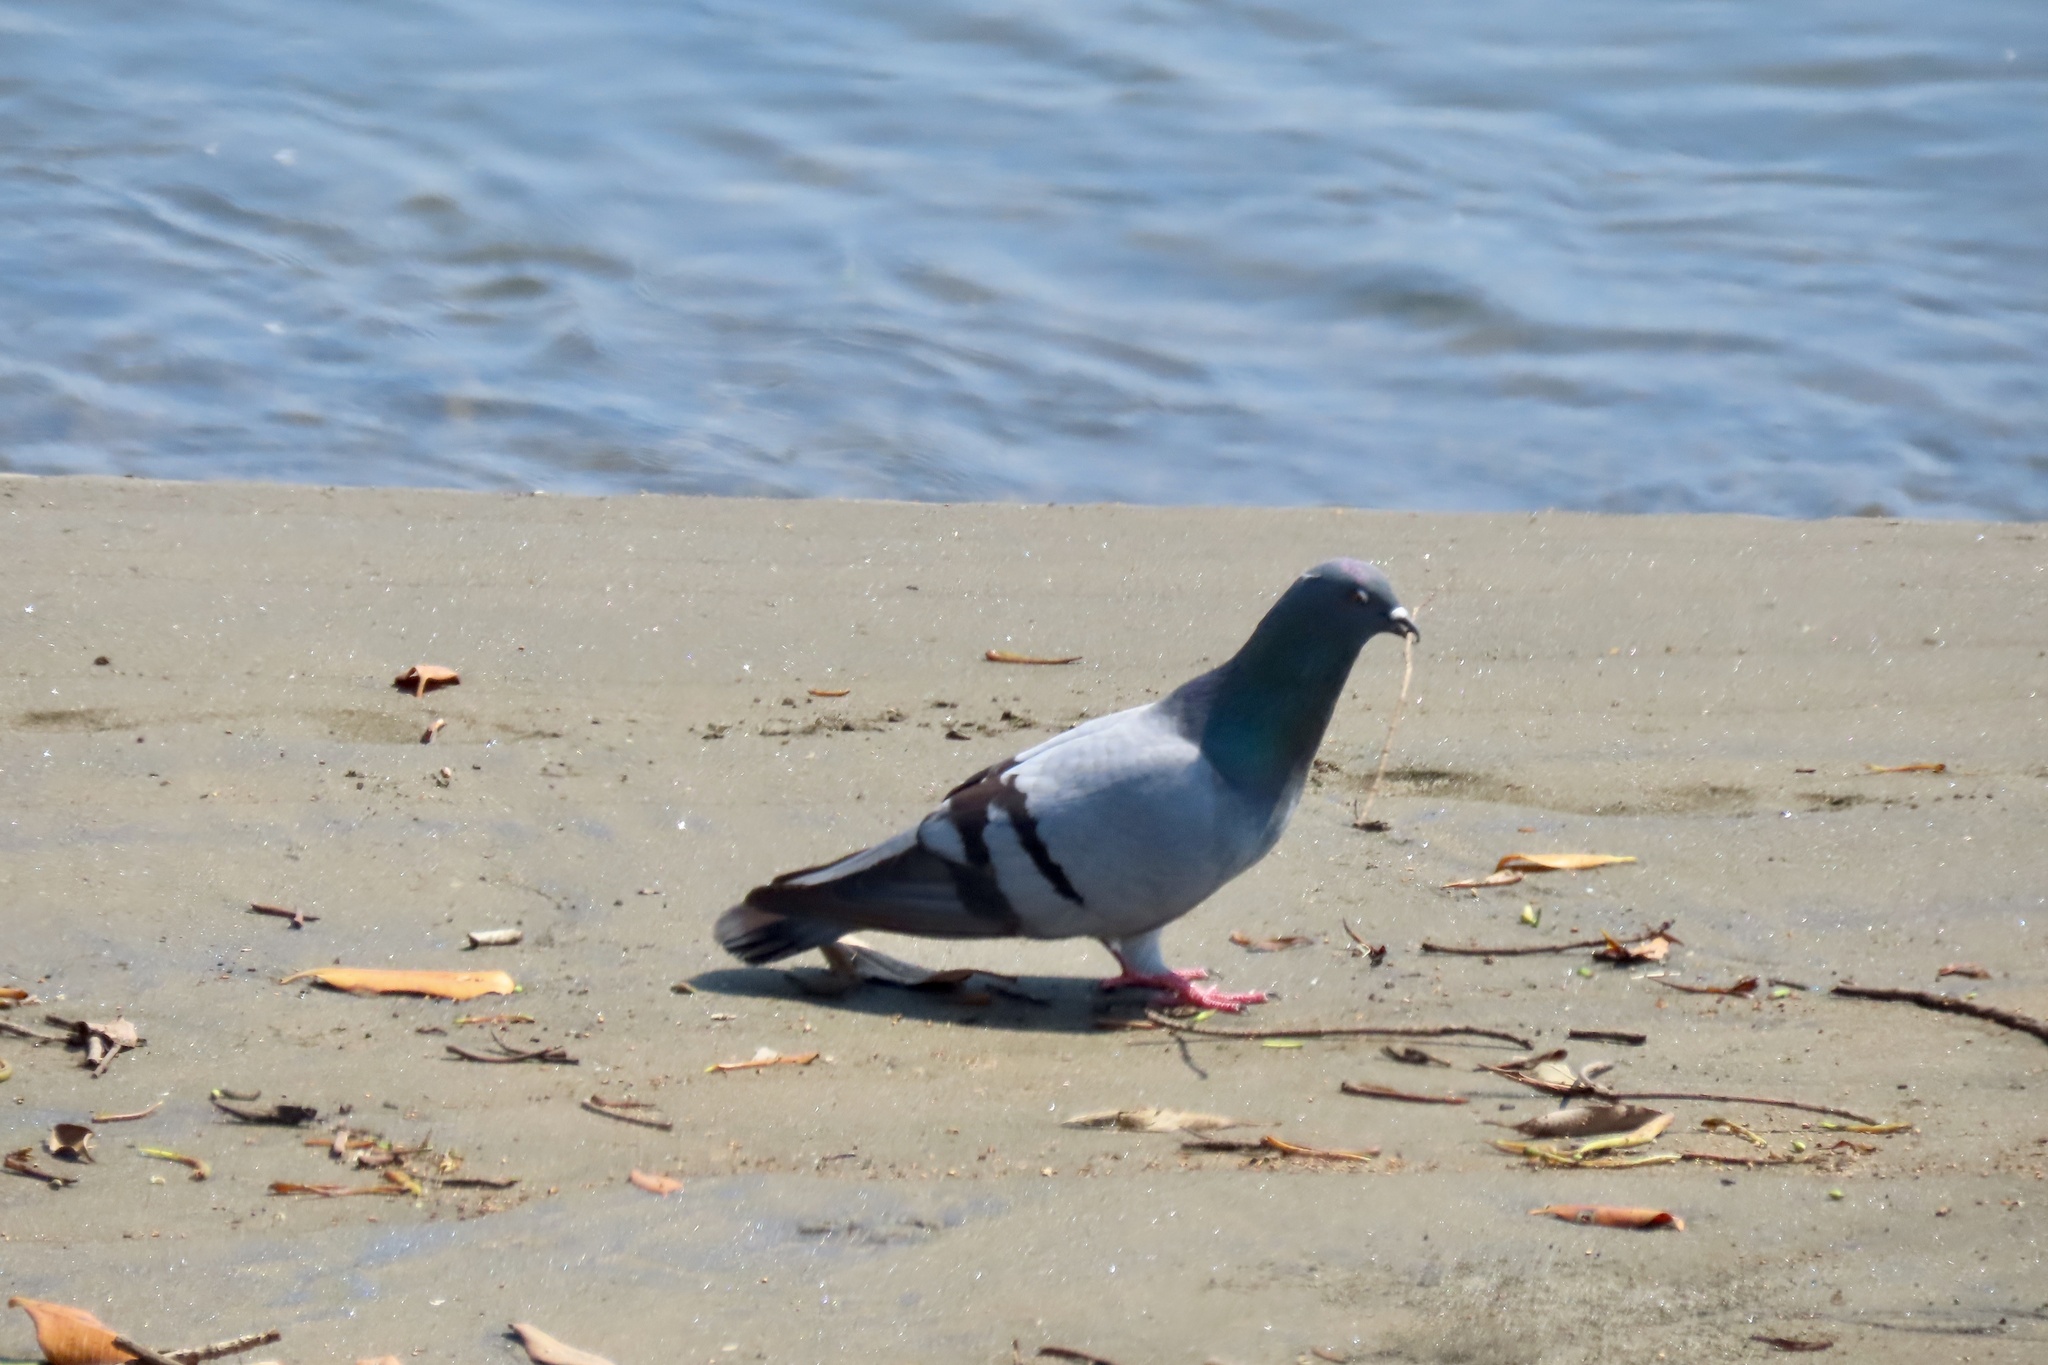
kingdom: Animalia
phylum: Chordata
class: Aves
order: Columbiformes
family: Columbidae
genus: Columba
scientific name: Columba livia
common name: Rock pigeon
